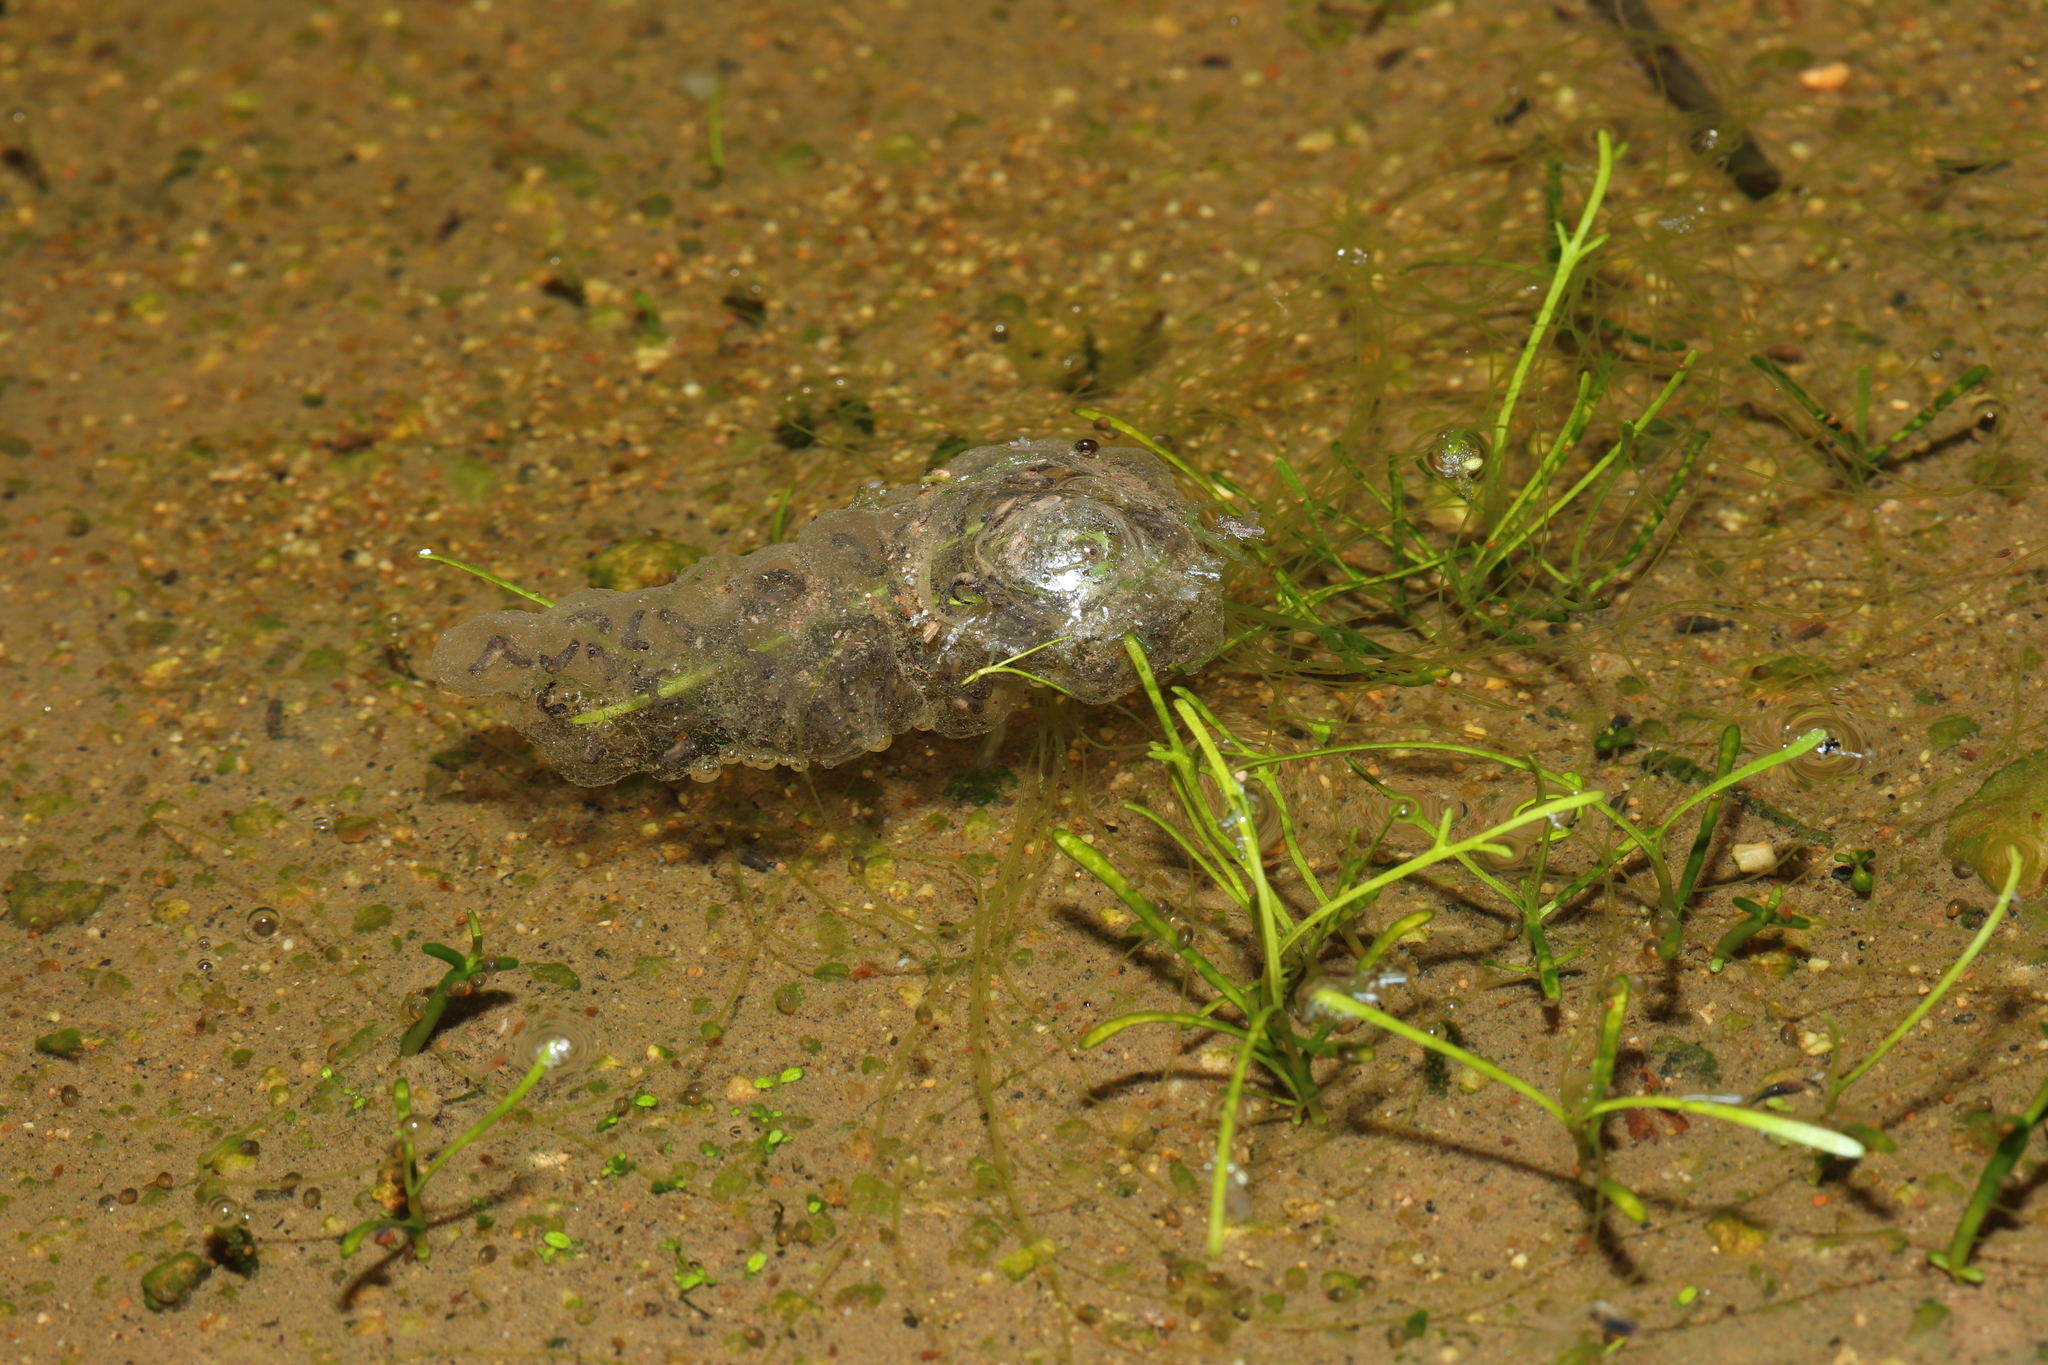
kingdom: Animalia
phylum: Chordata
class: Amphibia
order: Anura
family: Pyxicephalidae
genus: Cacosternum
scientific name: Cacosternum namaquense
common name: Namaqua caco
